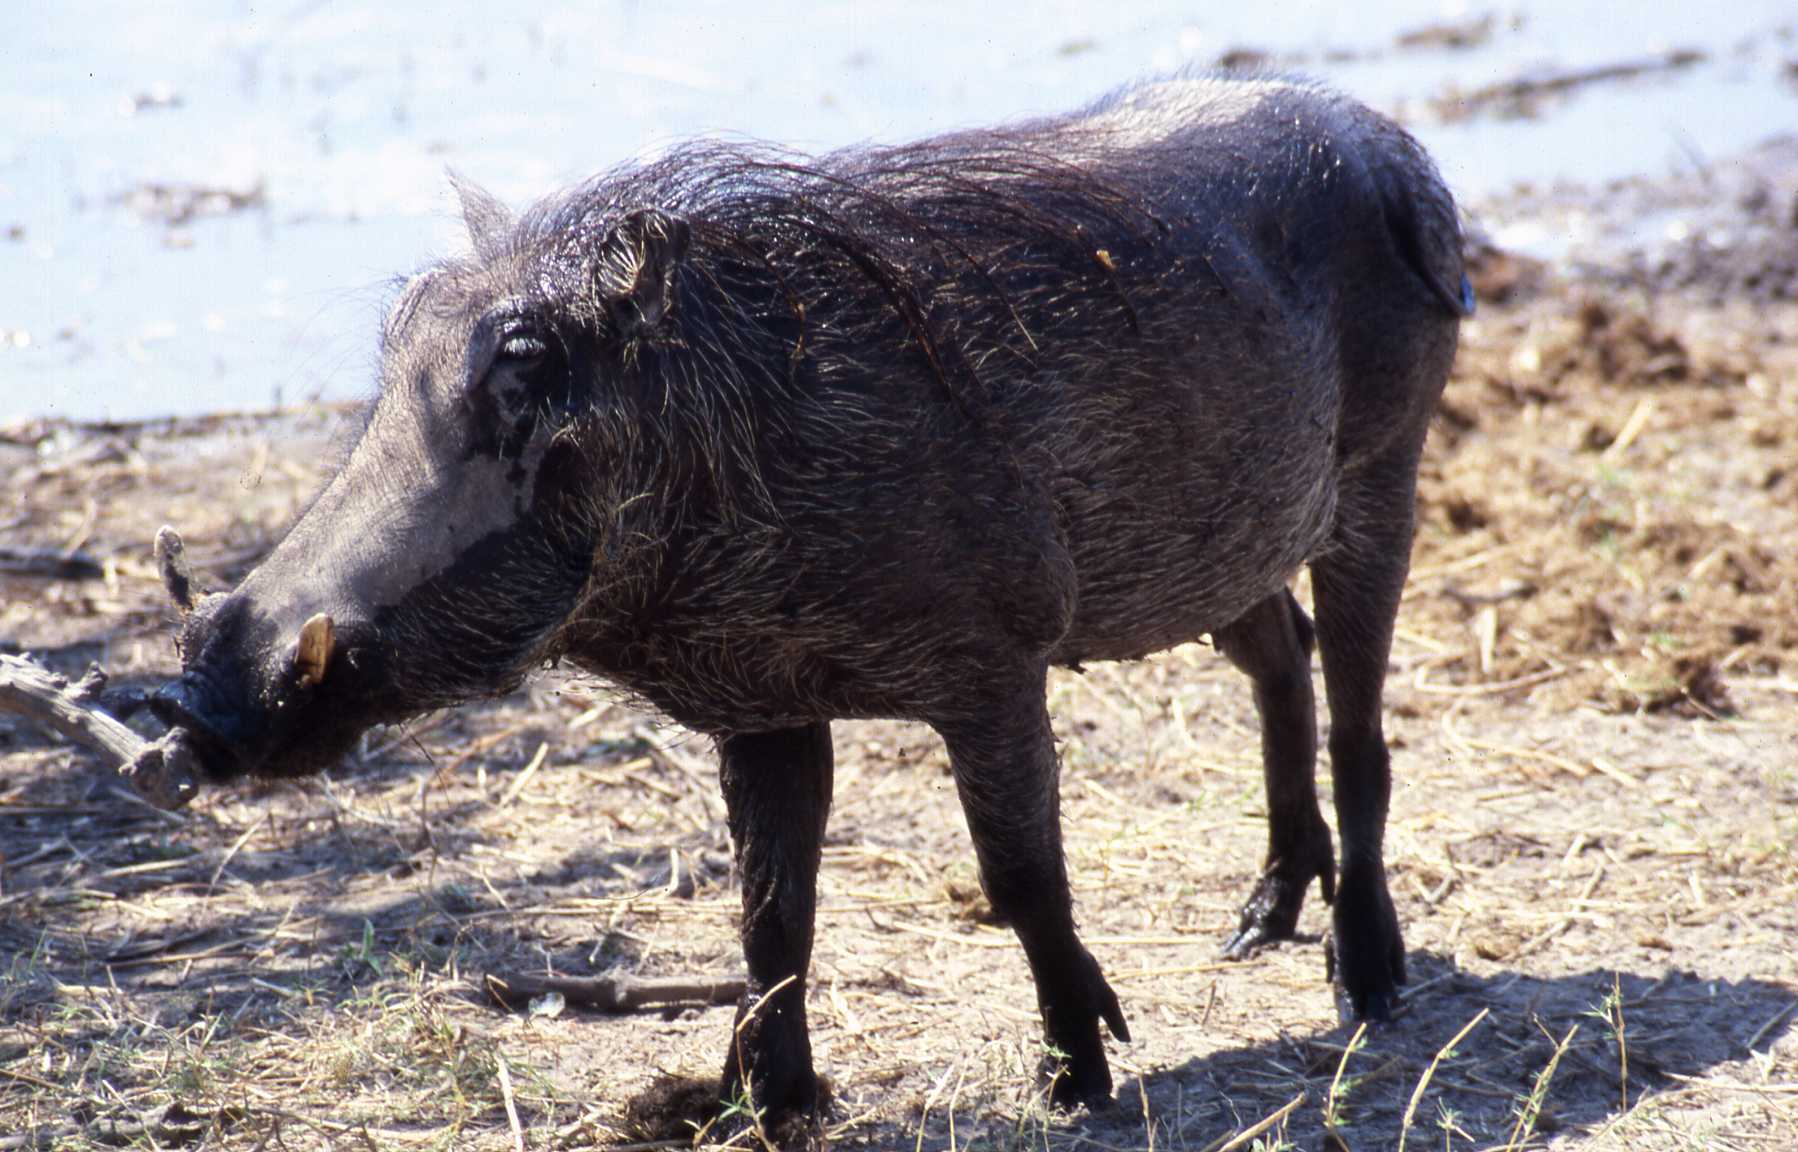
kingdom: Animalia
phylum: Chordata
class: Mammalia
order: Artiodactyla
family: Suidae
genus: Phacochoerus
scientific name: Phacochoerus africanus
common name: Common warthog
